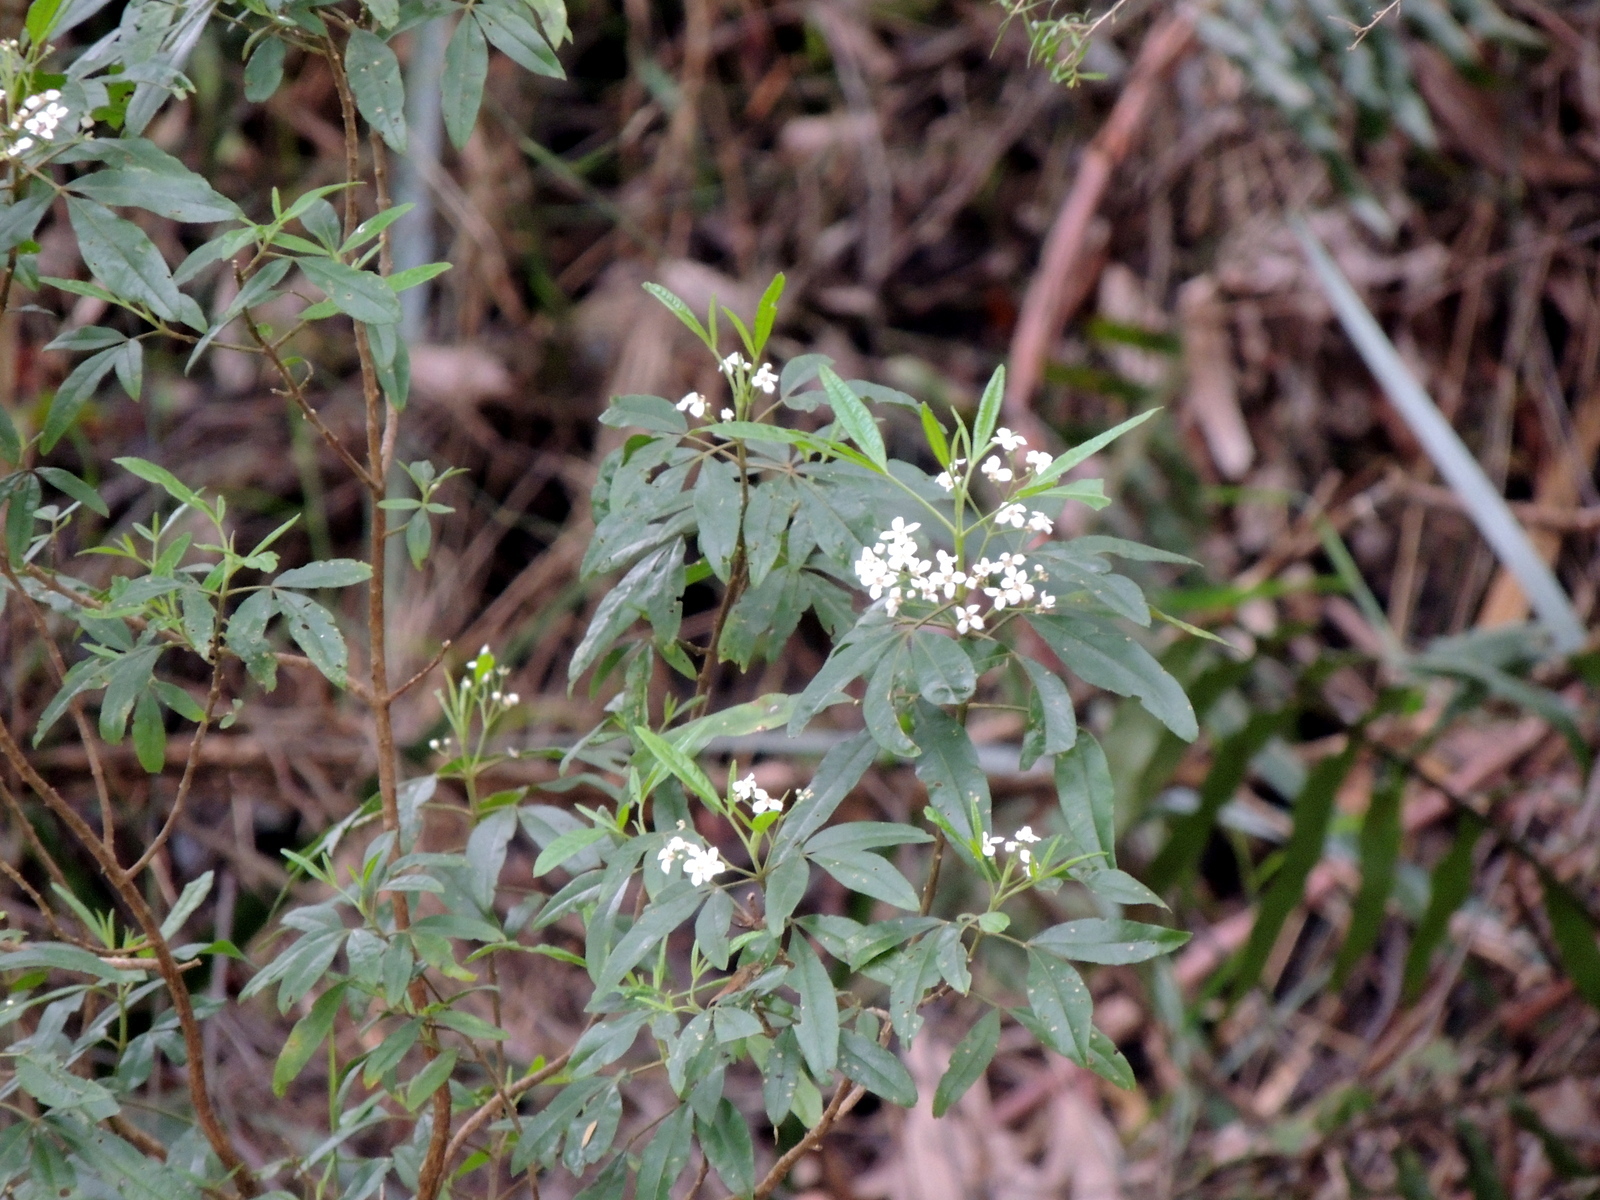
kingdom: Plantae
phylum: Tracheophyta
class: Magnoliopsida
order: Sapindales
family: Rutaceae
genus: Zieria
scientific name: Zieria arborescens
